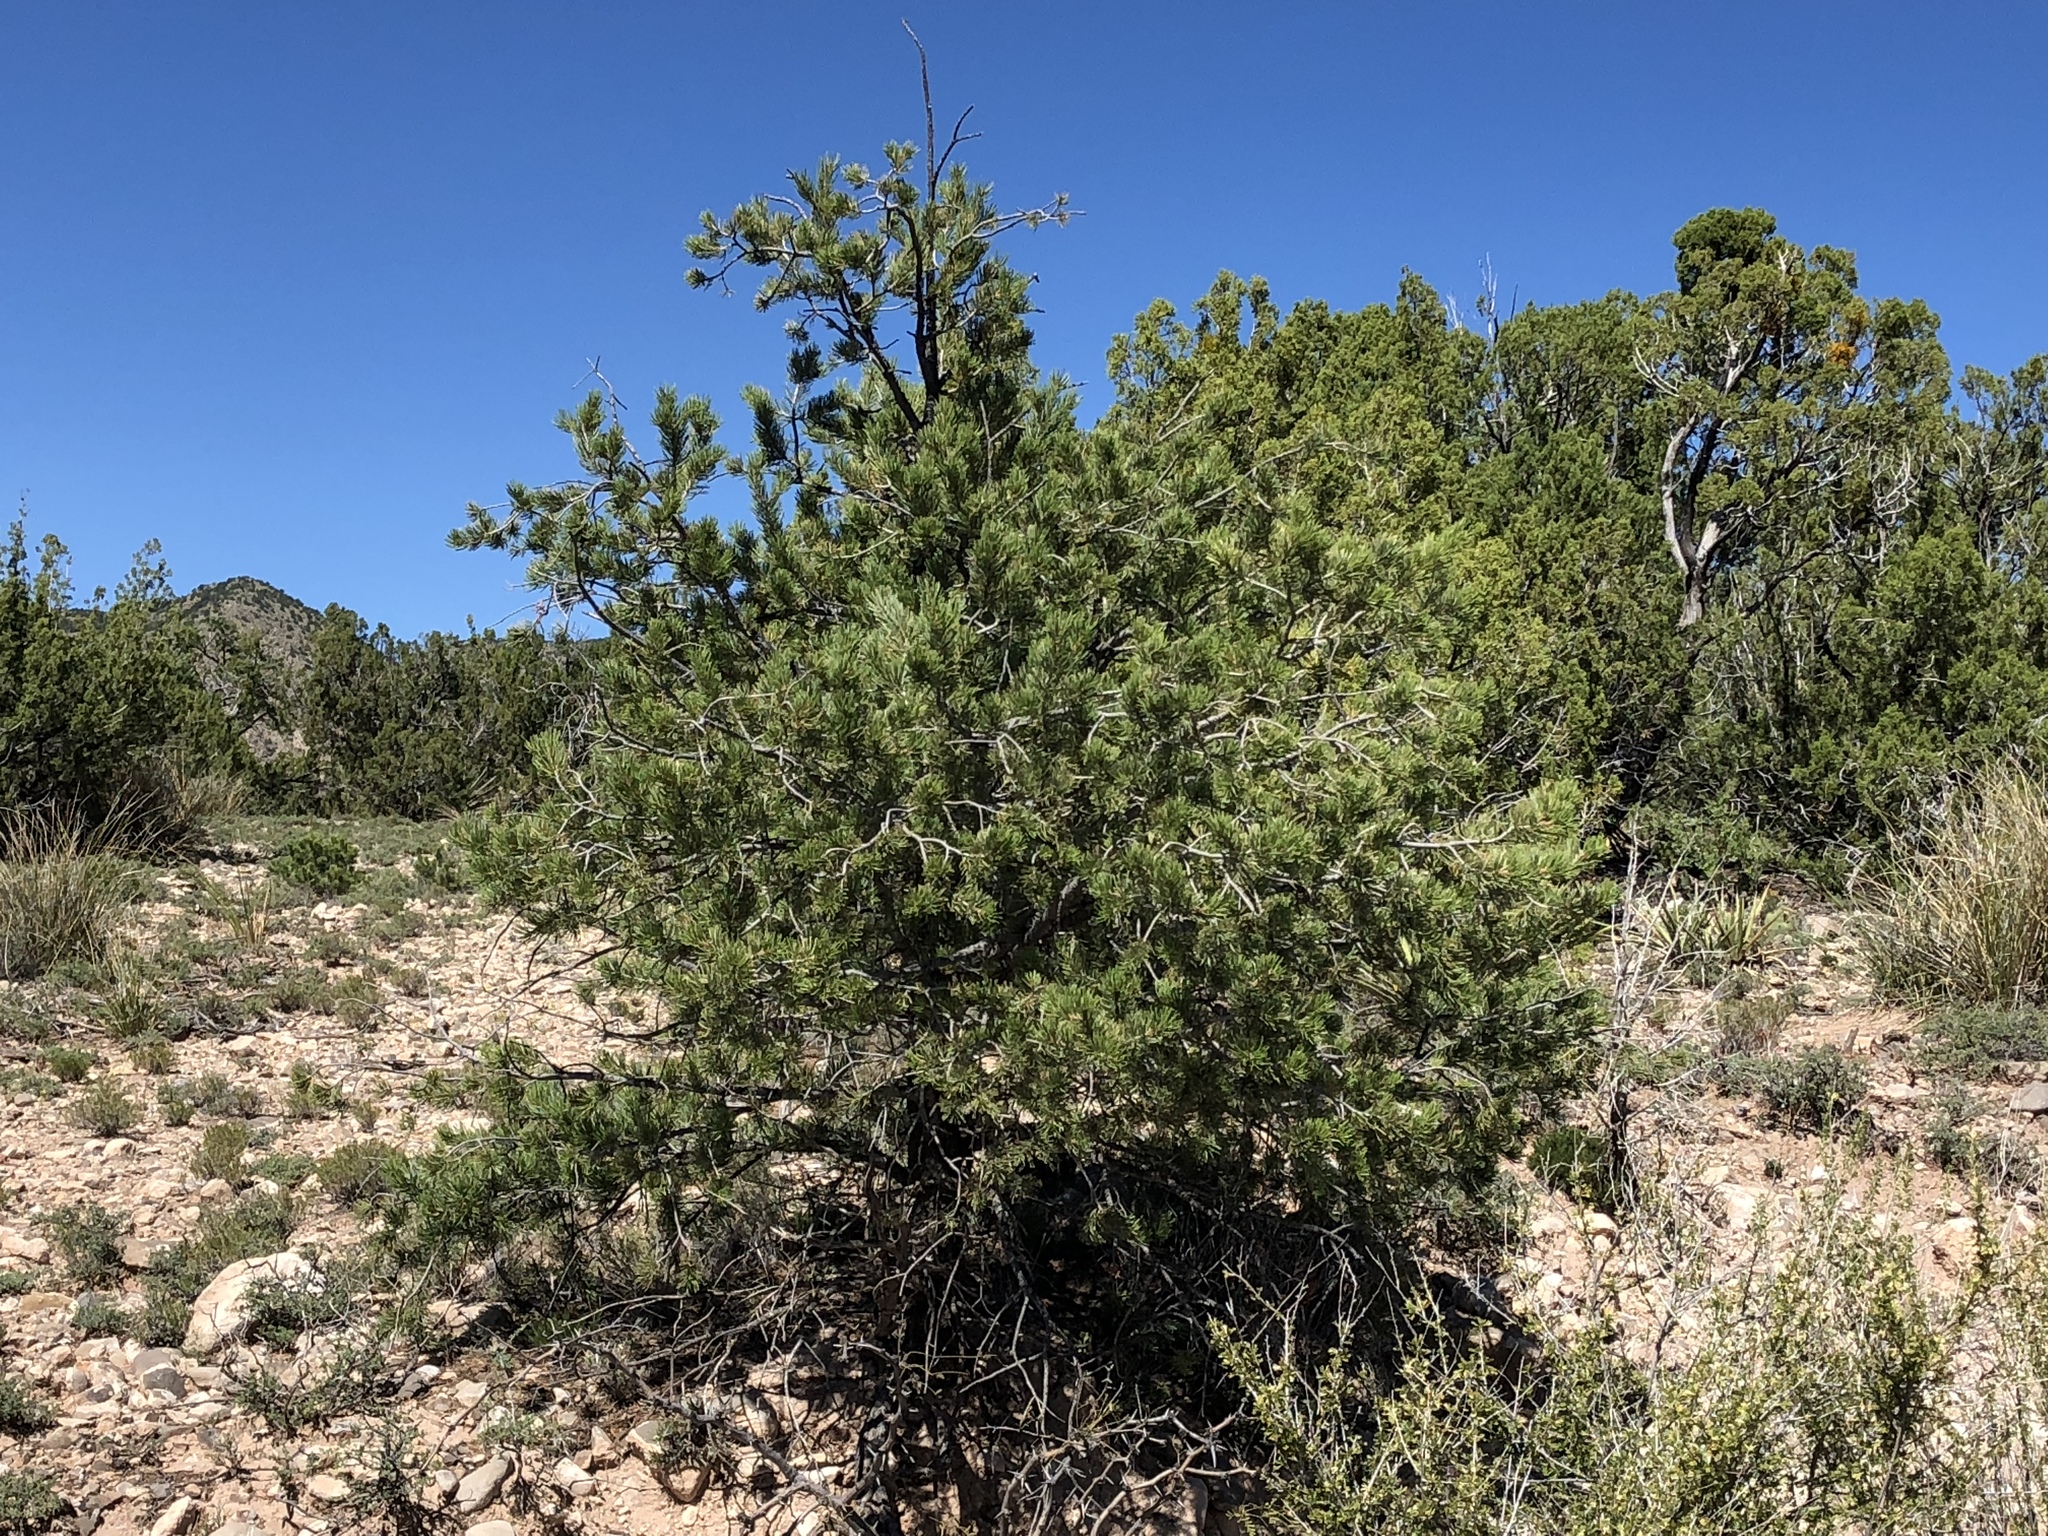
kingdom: Plantae
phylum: Tracheophyta
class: Pinopsida
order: Pinales
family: Pinaceae
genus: Pinus
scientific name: Pinus edulis
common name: Colorado pinyon
